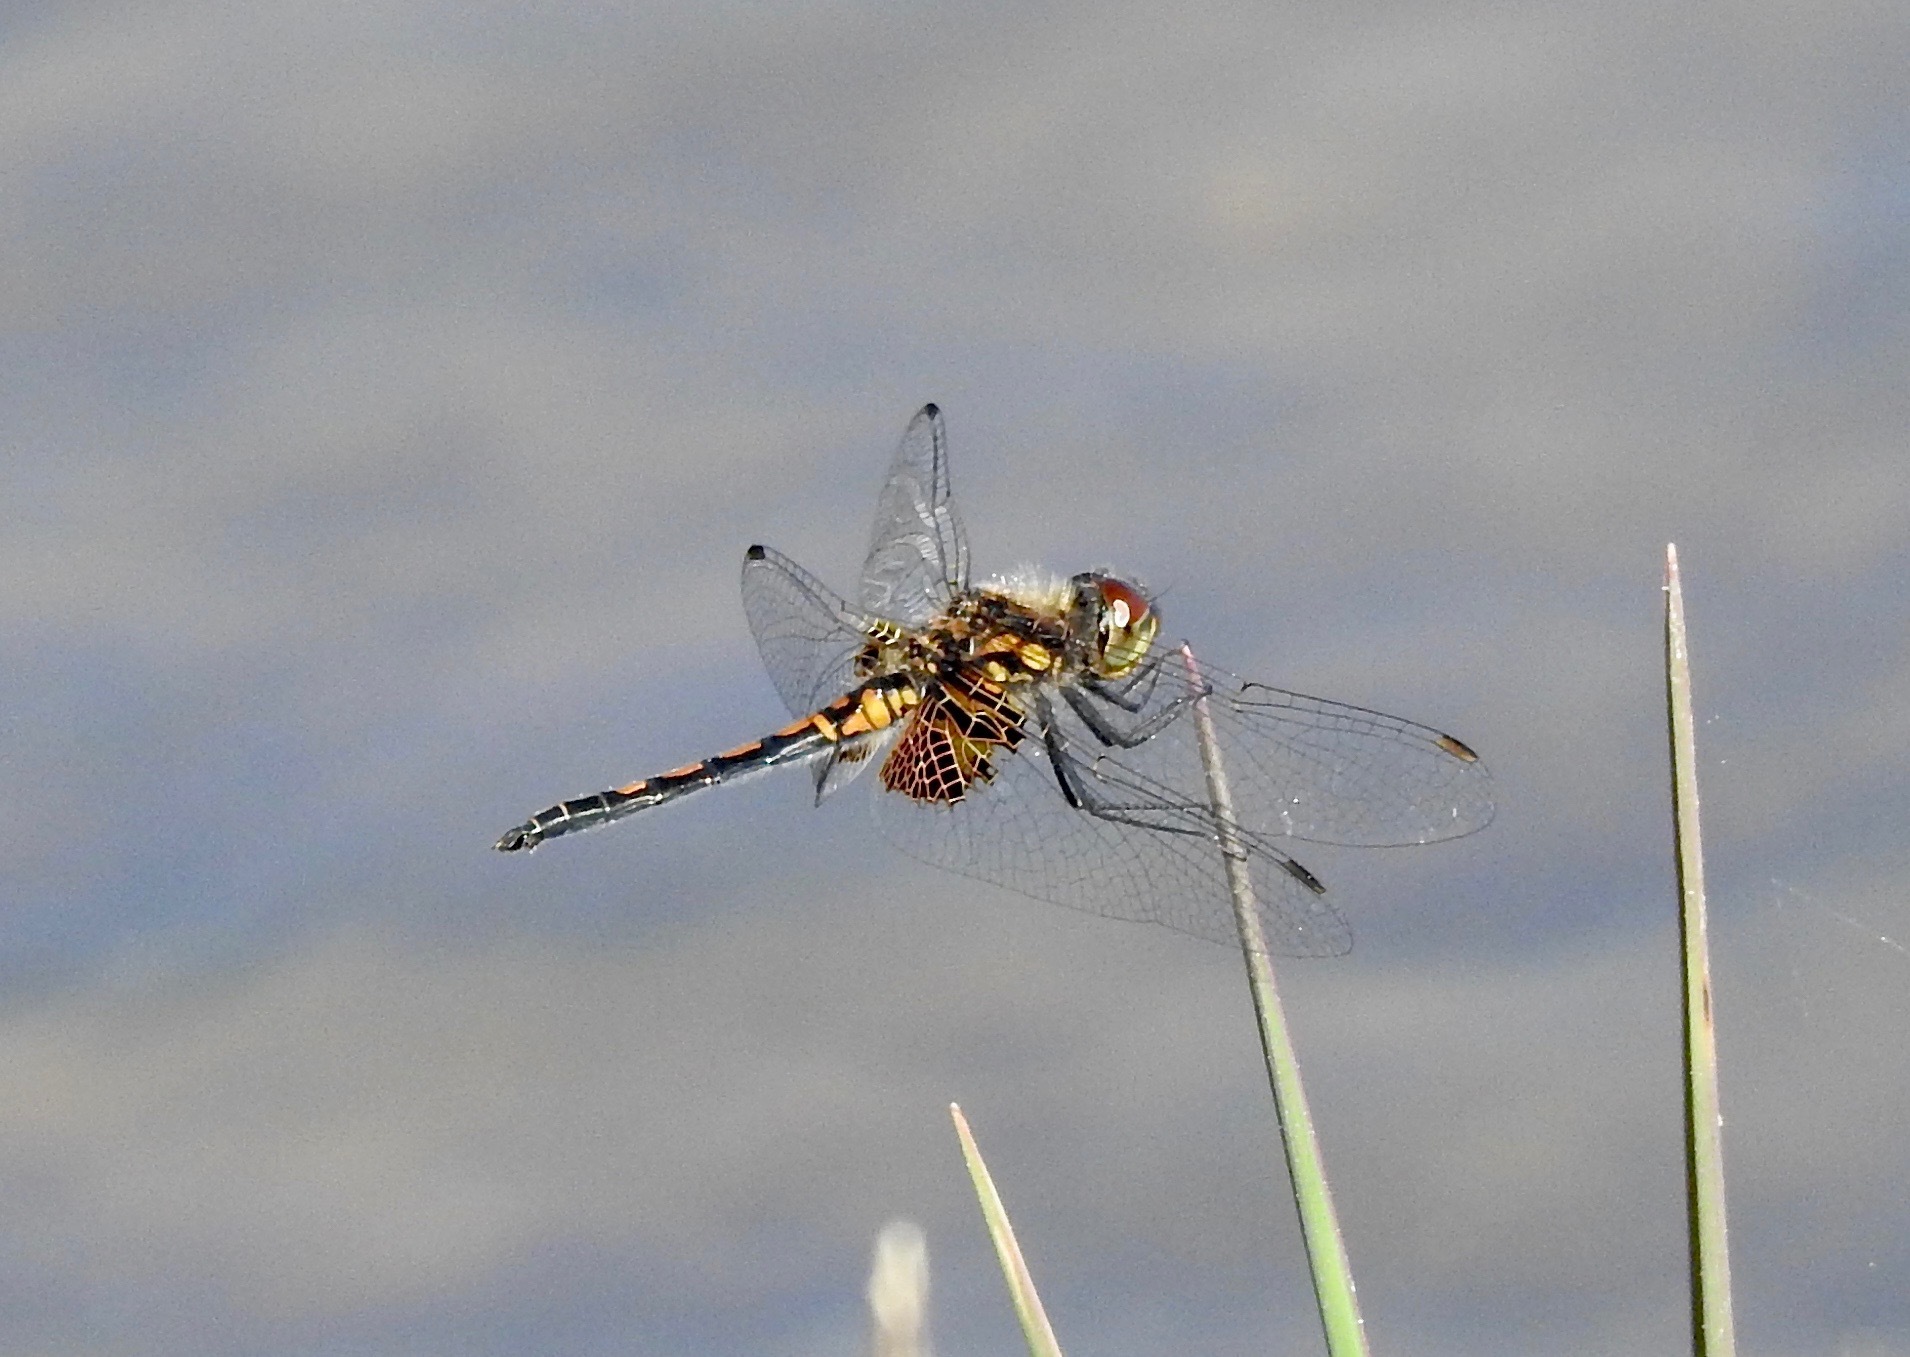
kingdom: Animalia
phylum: Arthropoda
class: Insecta
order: Odonata
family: Libellulidae
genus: Celithemis
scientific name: Celithemis ornata
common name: Ornate pennant
